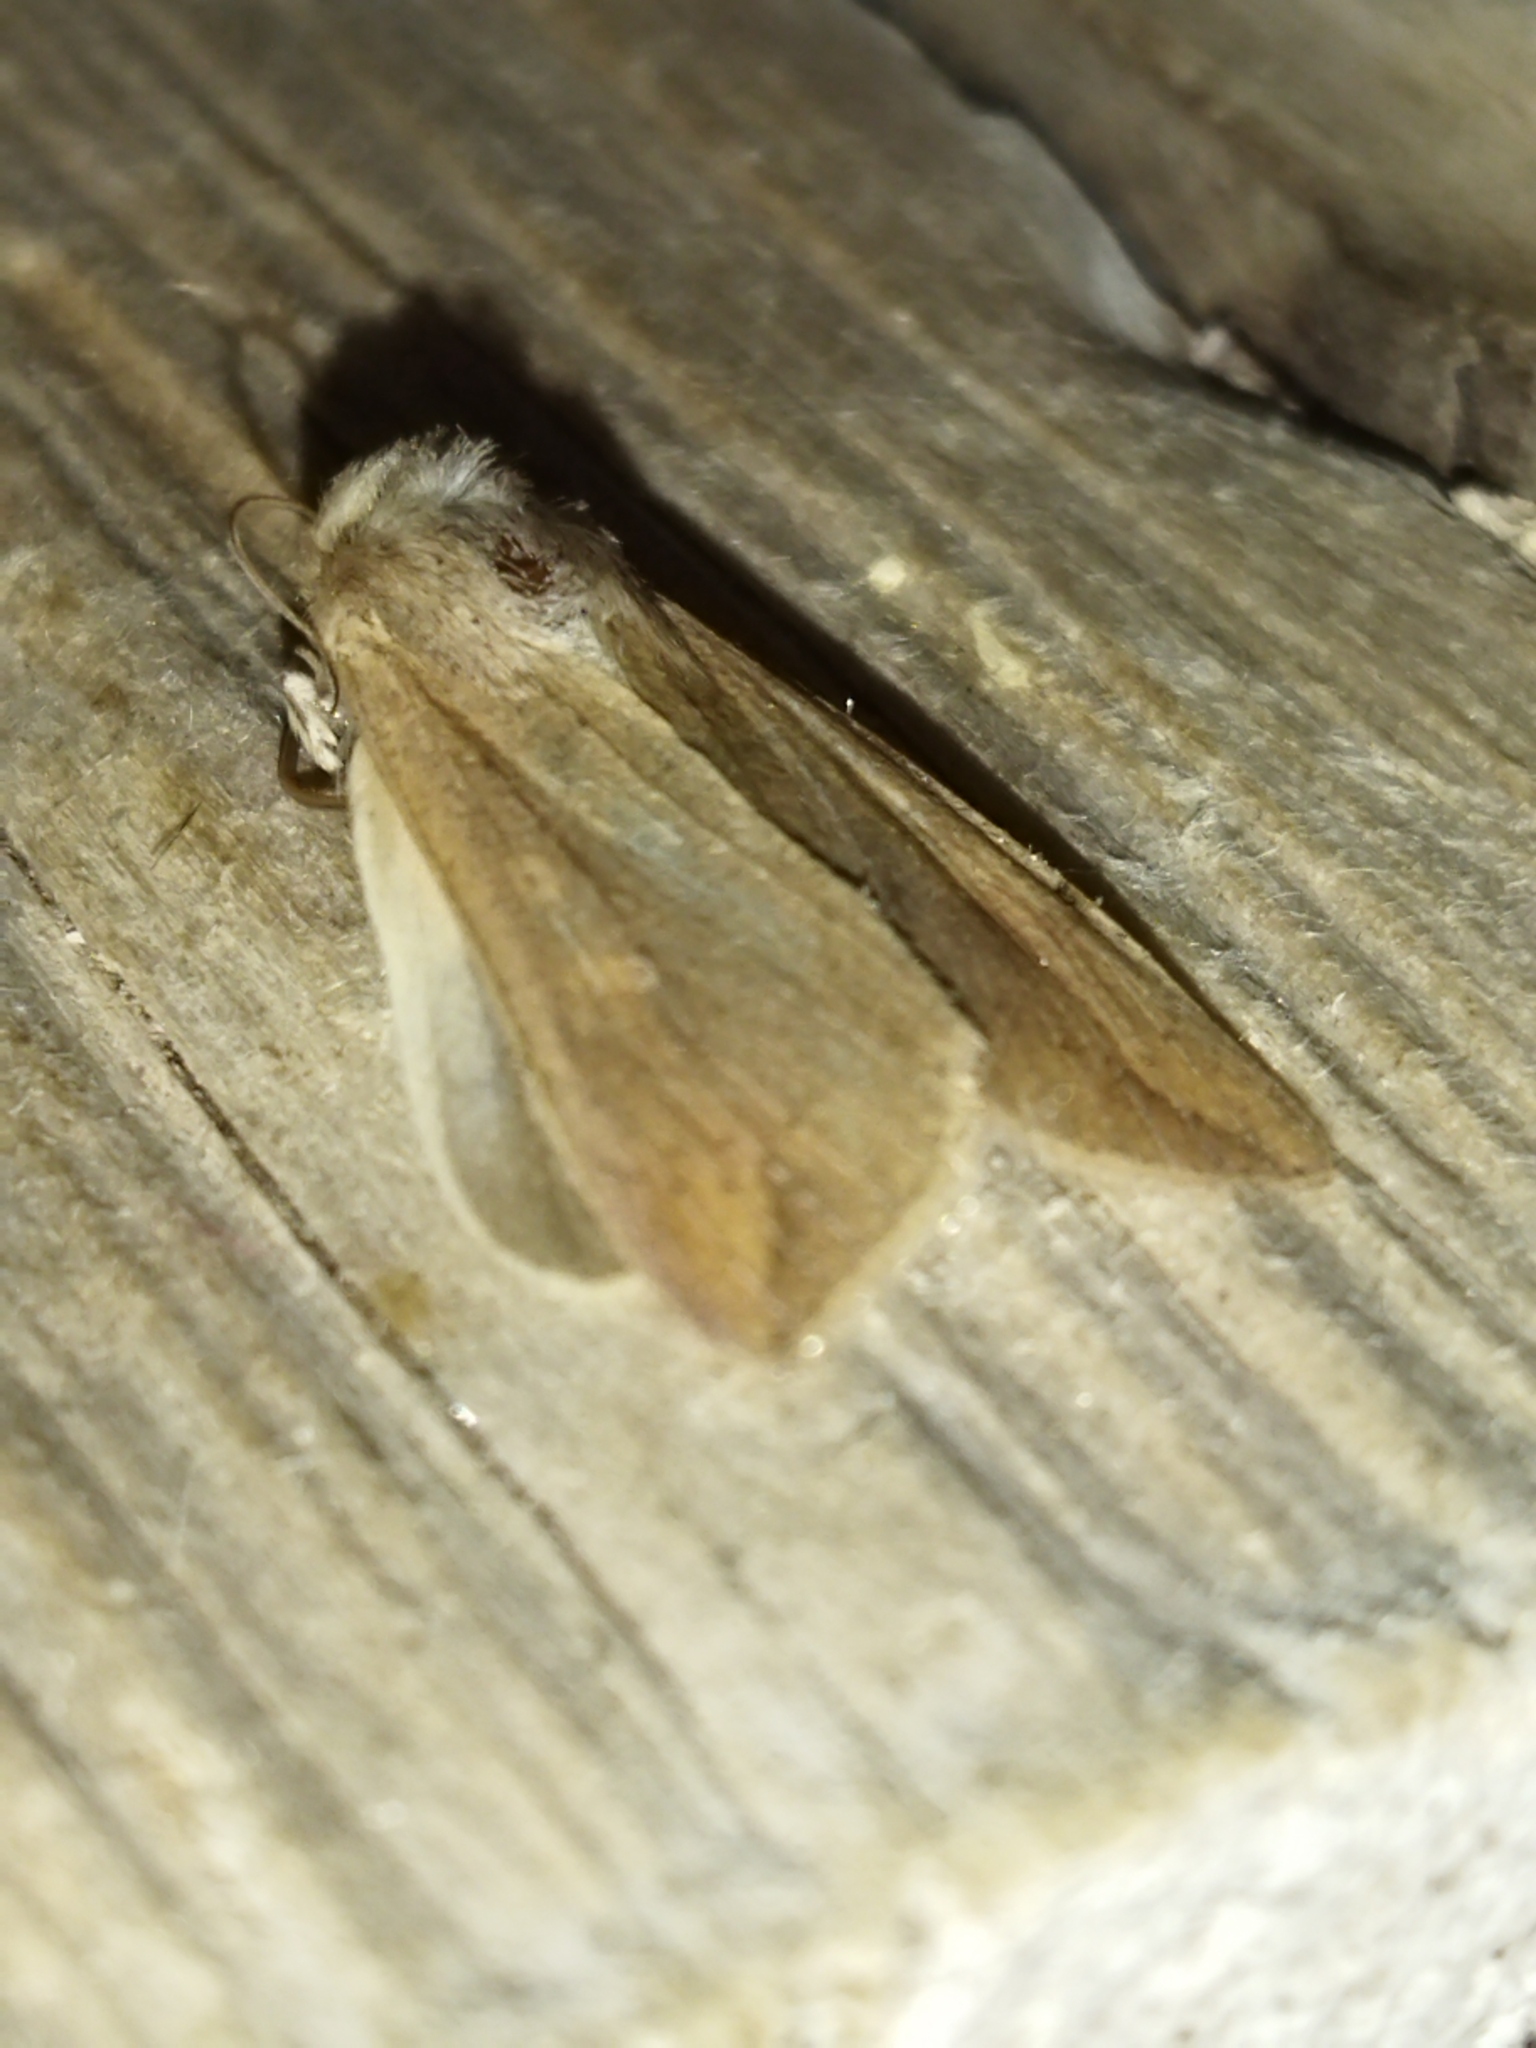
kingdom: Animalia
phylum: Arthropoda
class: Insecta
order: Lepidoptera
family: Noctuidae
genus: Mythimna
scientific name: Mythimna unipuncta
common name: White-speck
